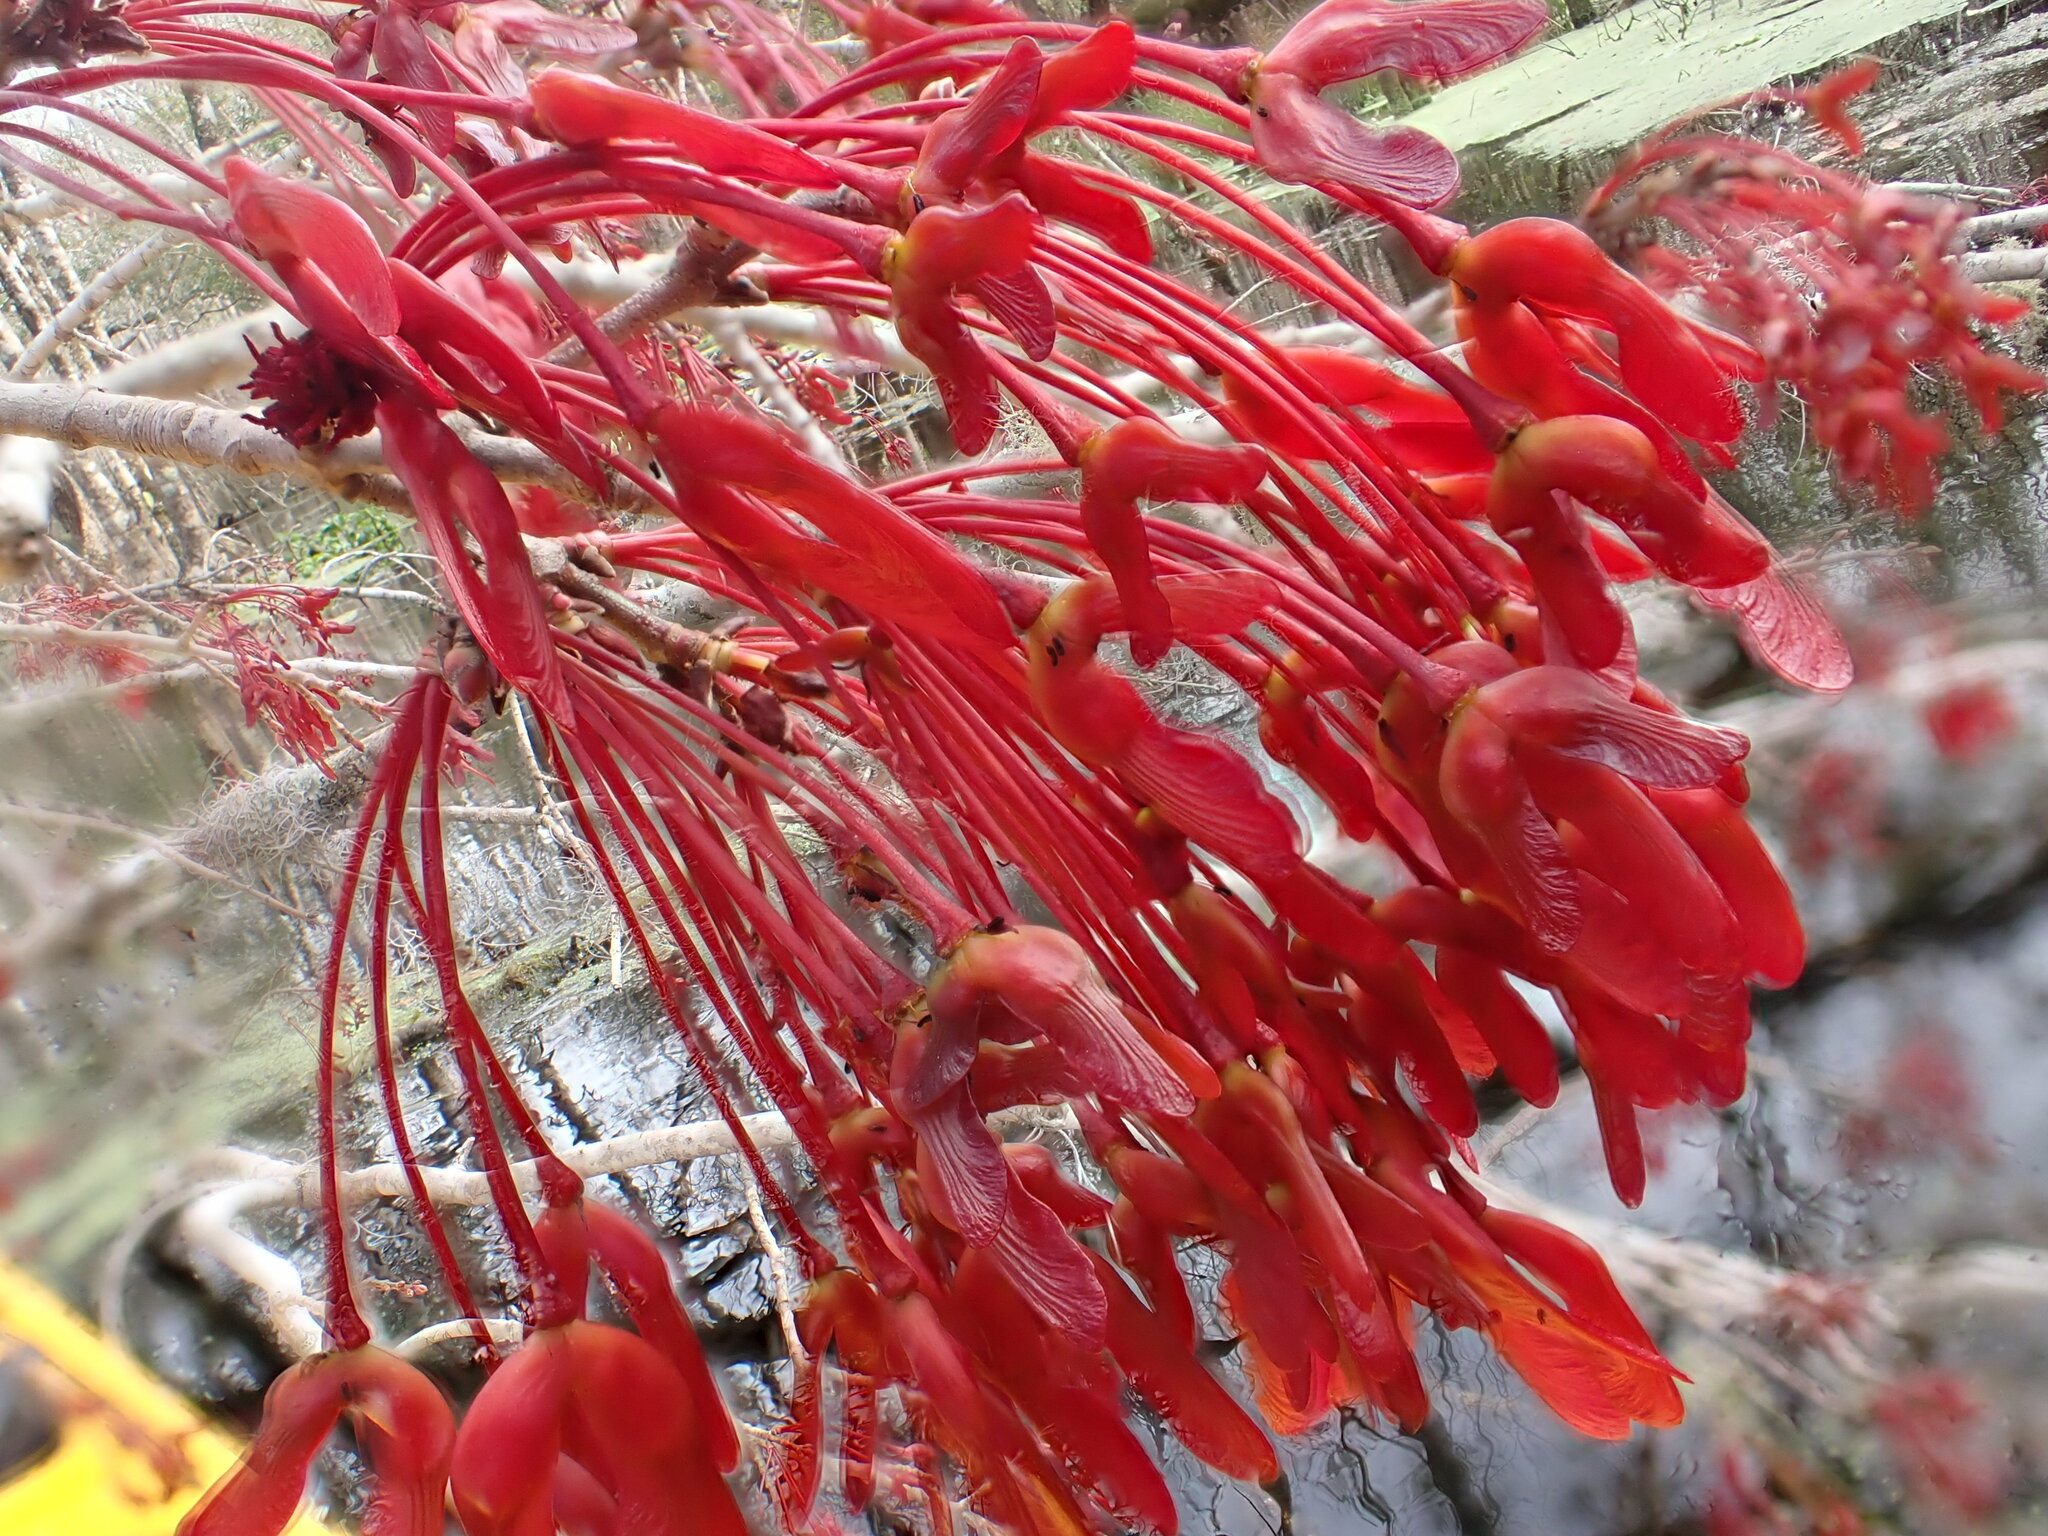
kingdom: Plantae
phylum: Tracheophyta
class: Magnoliopsida
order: Sapindales
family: Sapindaceae
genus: Acer
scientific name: Acer rubrum
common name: Red maple
